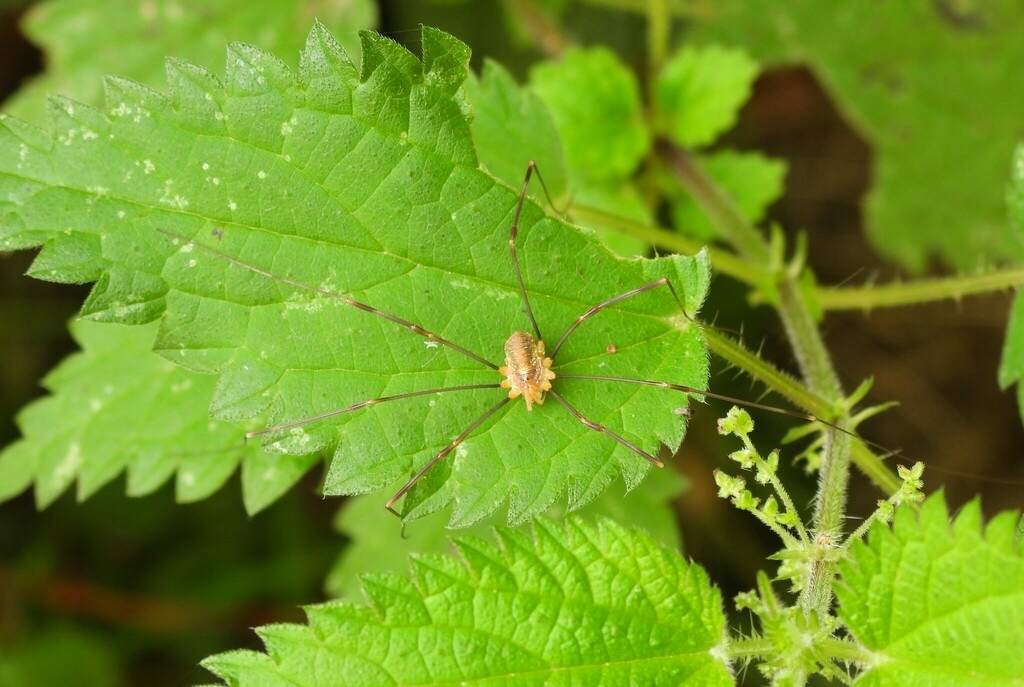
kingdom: Animalia
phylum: Arthropoda
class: Arachnida
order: Opiliones
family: Phalangiidae
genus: Opilio
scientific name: Opilio canestrinii
